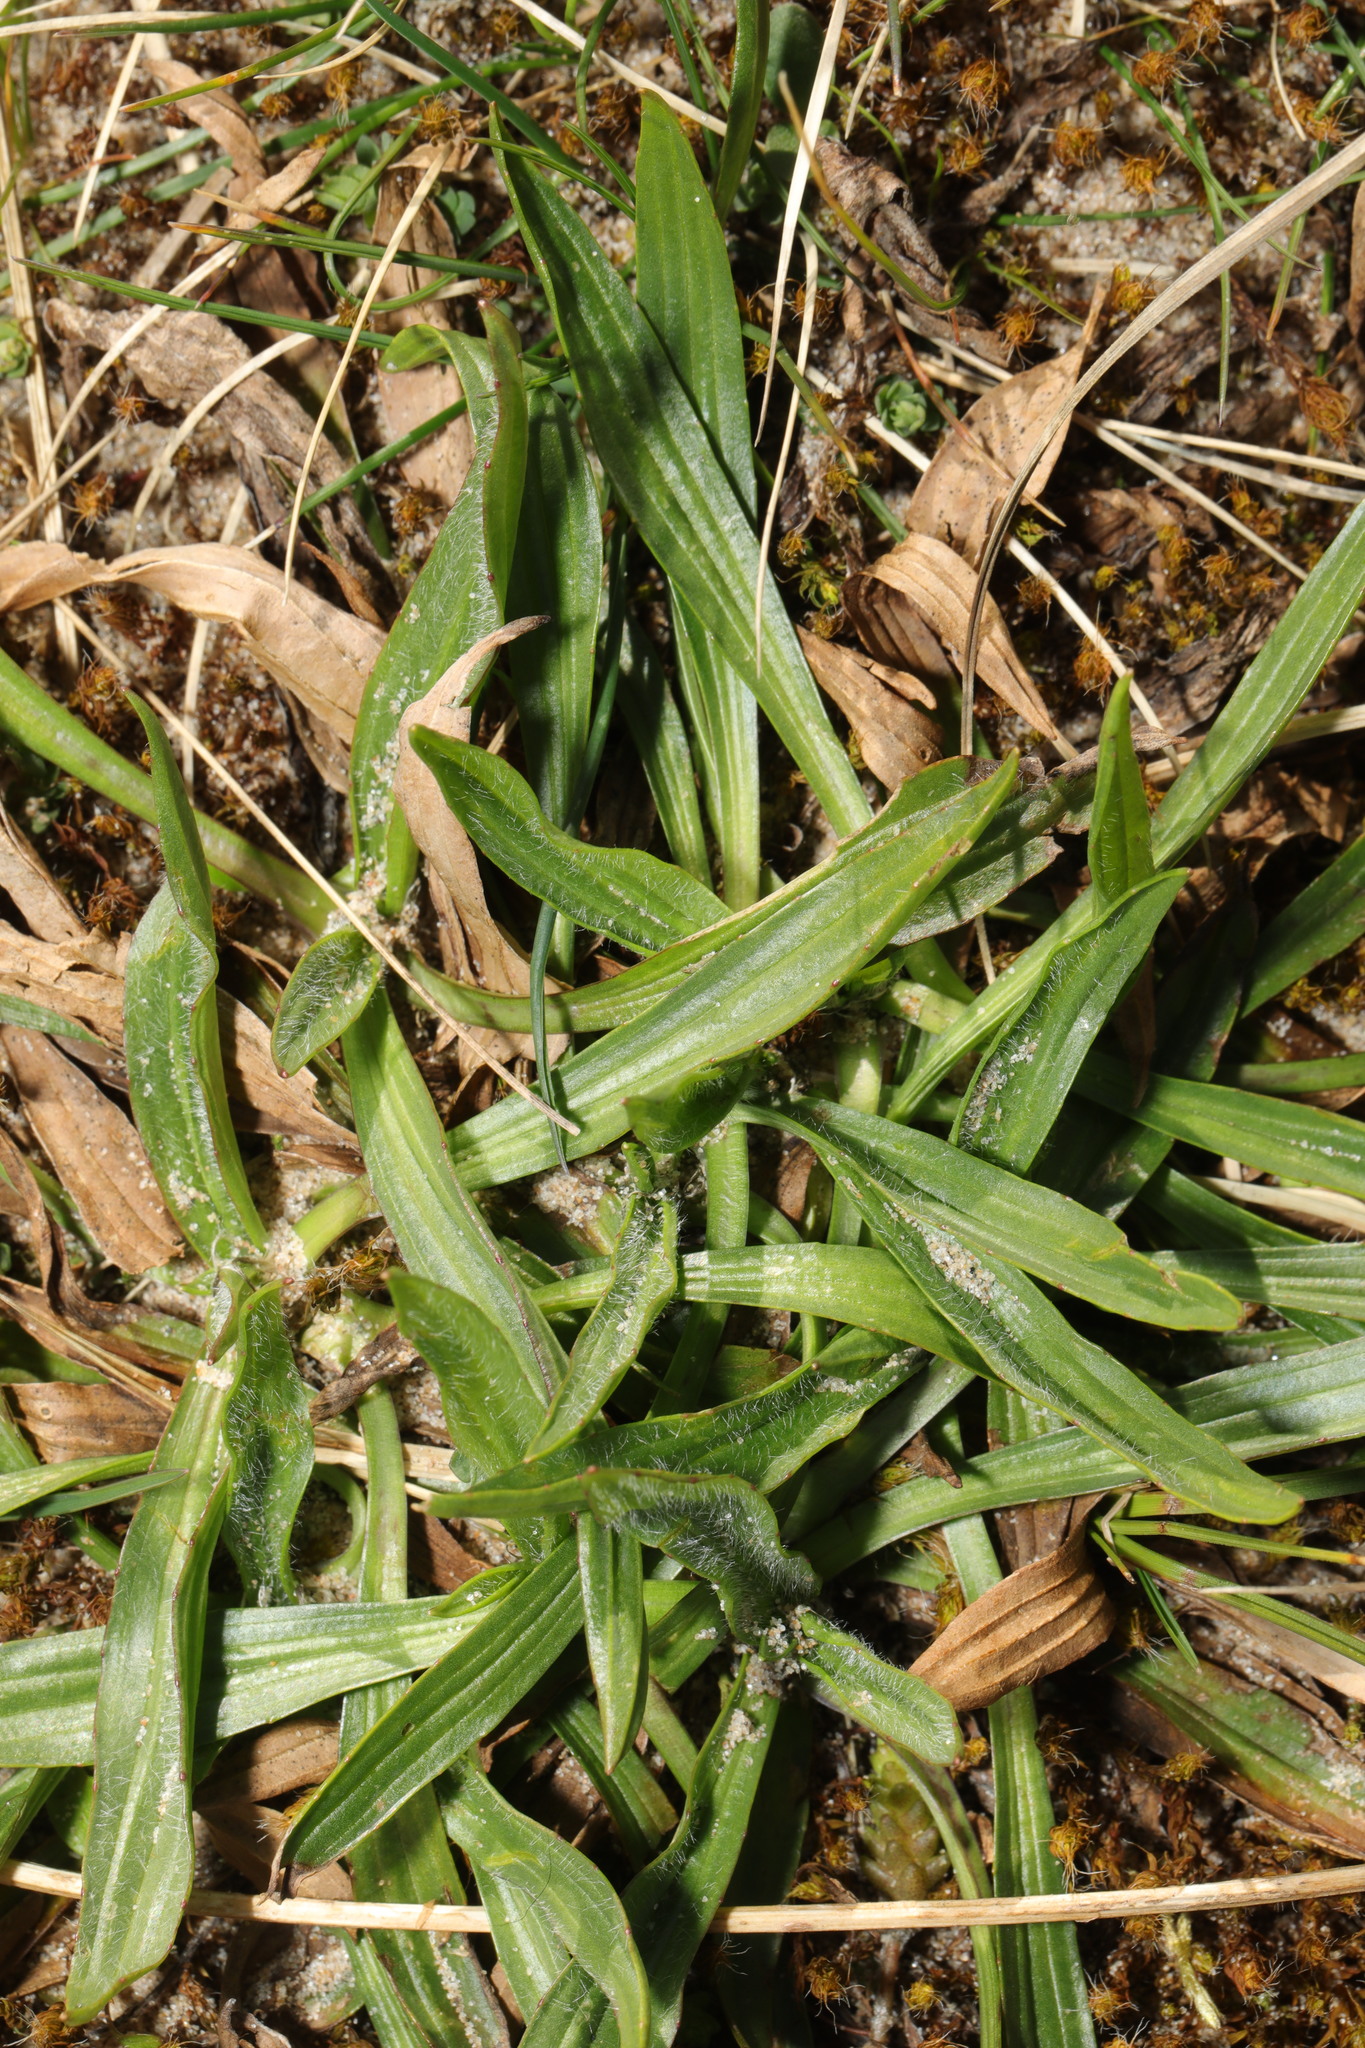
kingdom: Plantae
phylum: Tracheophyta
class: Magnoliopsida
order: Lamiales
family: Plantaginaceae
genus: Plantago
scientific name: Plantago lanceolata
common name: Ribwort plantain
